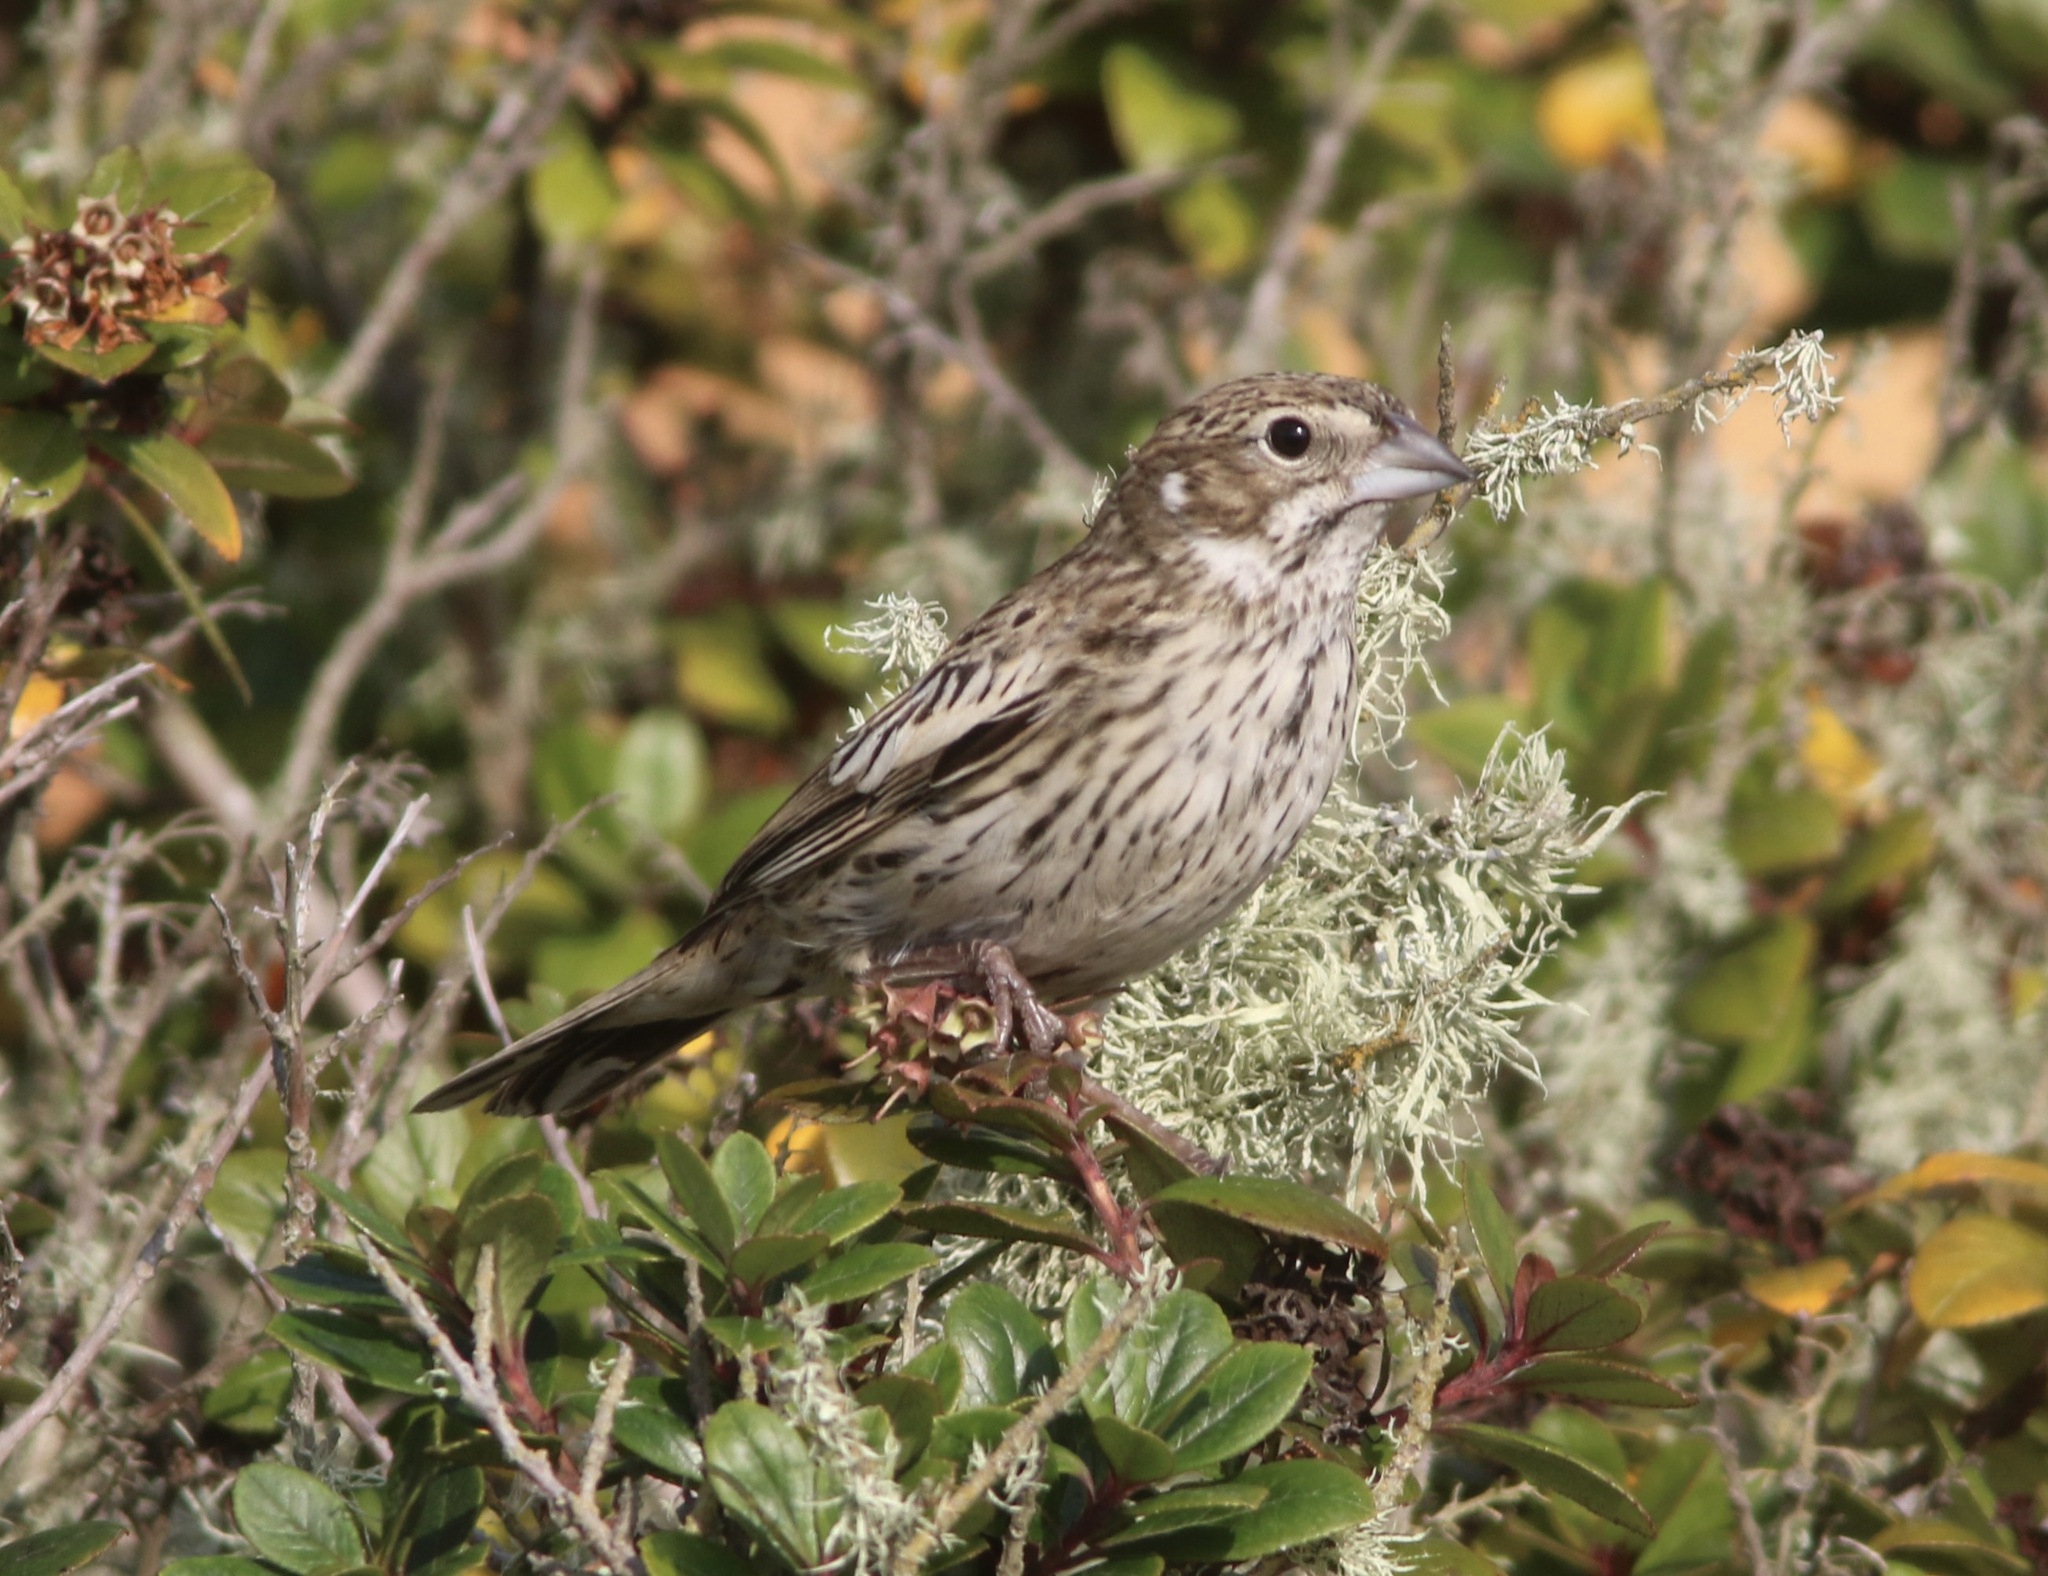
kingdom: Animalia
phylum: Chordata
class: Aves
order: Passeriformes
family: Passerellidae
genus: Calamospiza
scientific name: Calamospiza melanocorys
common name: Lark bunting
